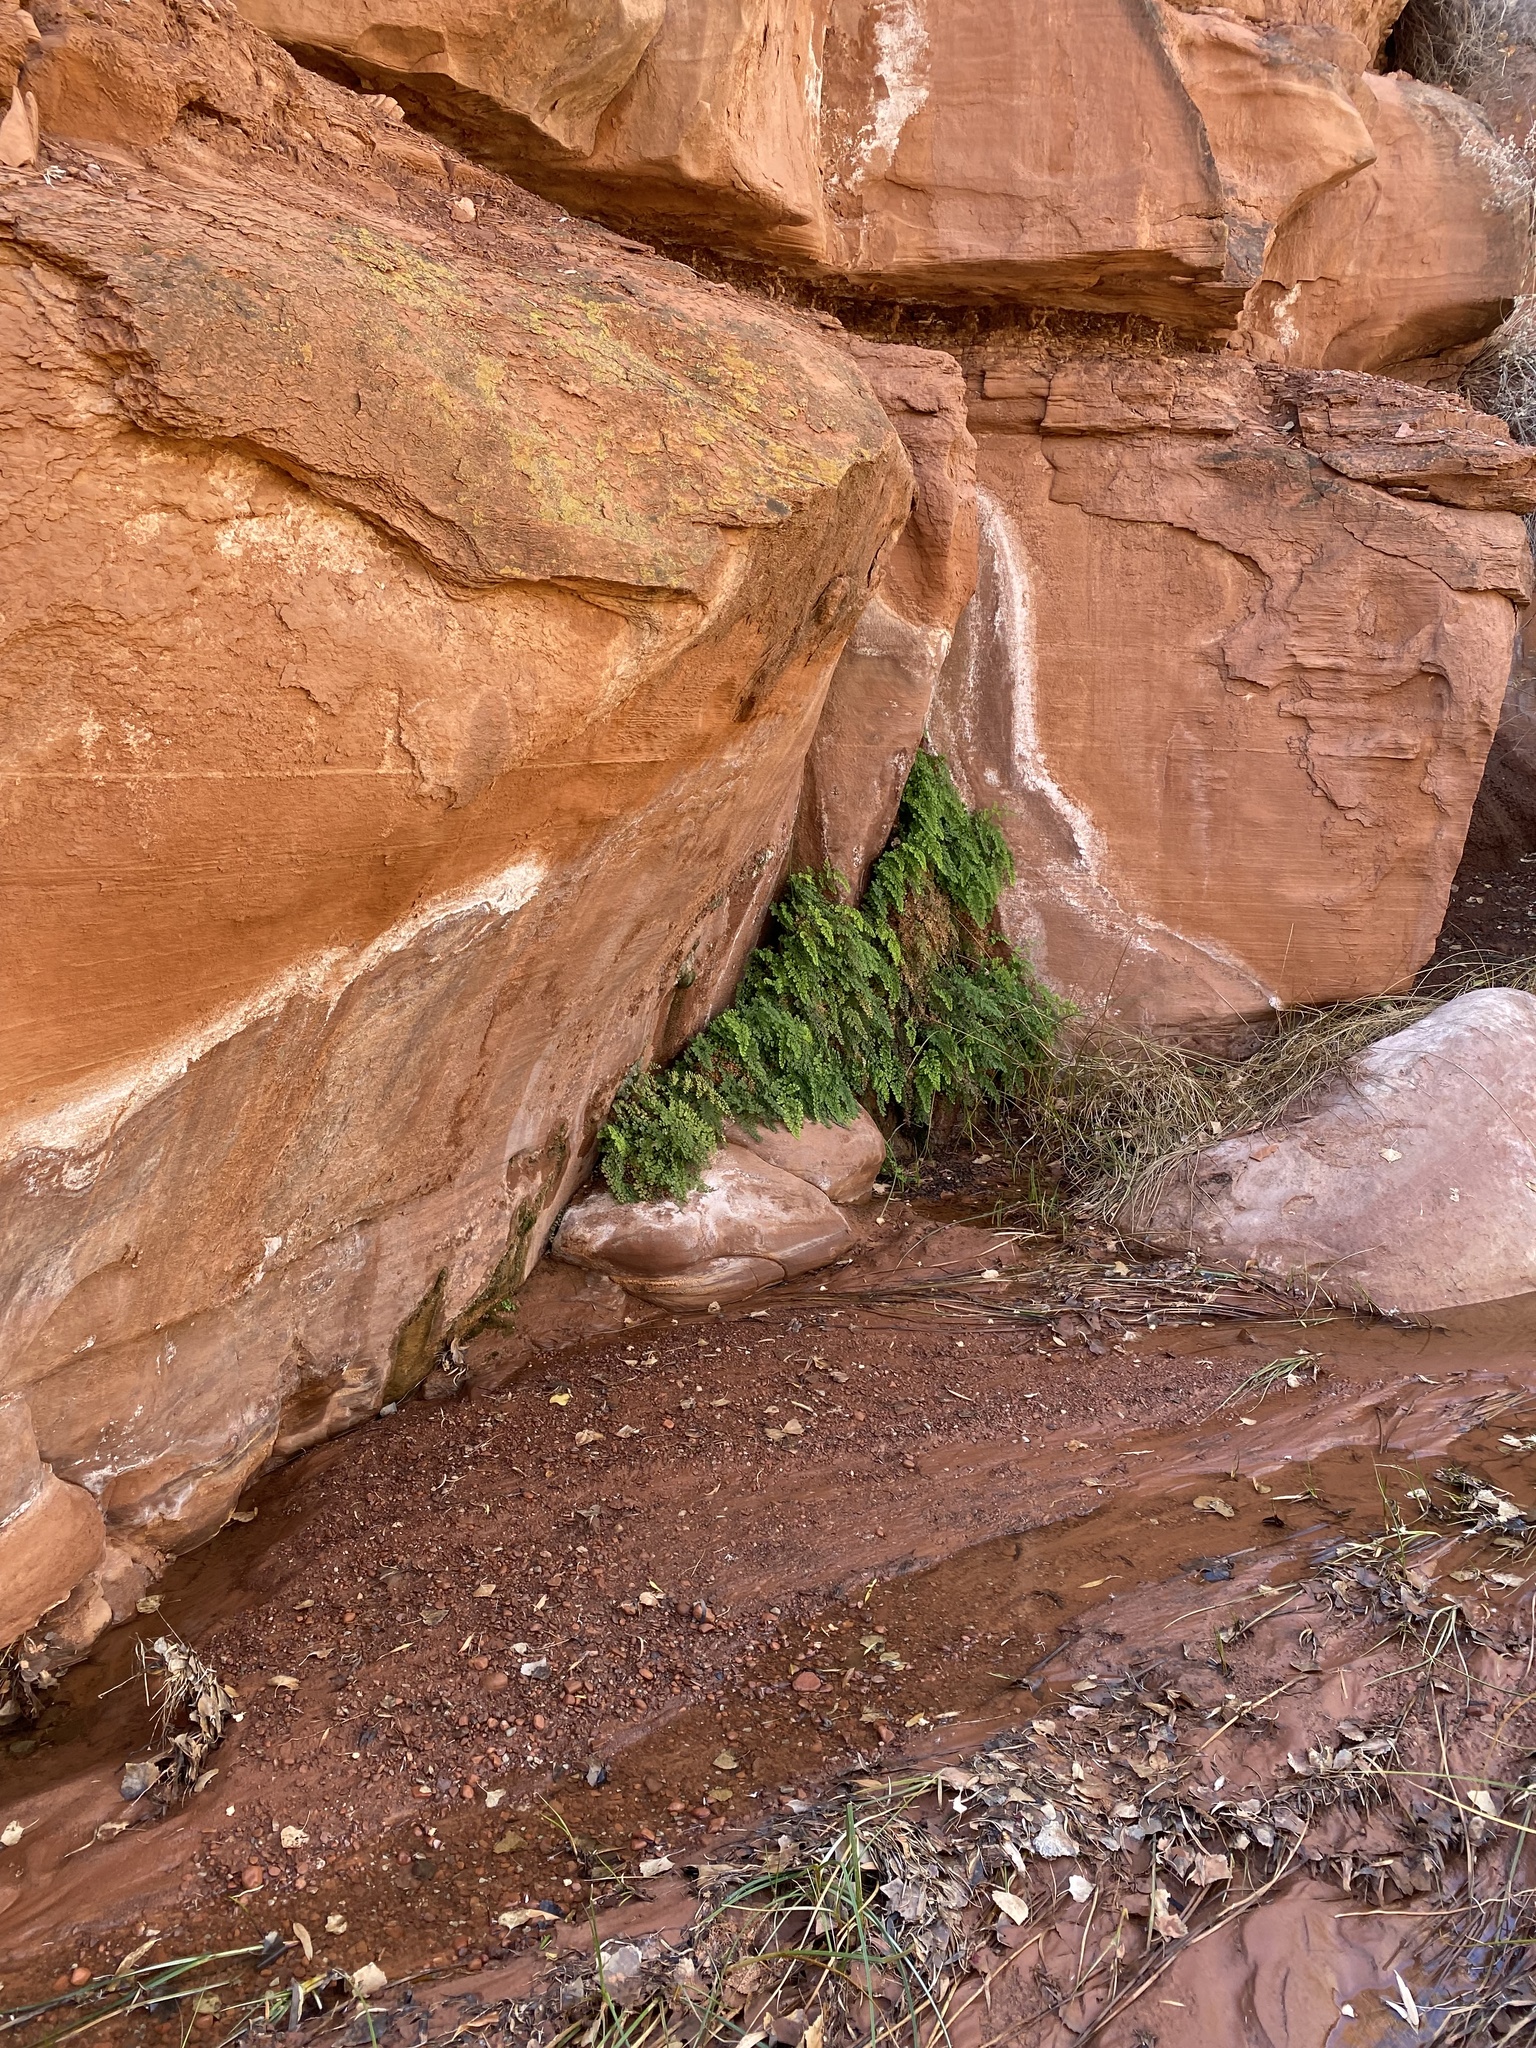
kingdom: Plantae
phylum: Tracheophyta
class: Polypodiopsida
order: Polypodiales
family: Pteridaceae
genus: Adiantum
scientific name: Adiantum capillus-veneris
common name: Maidenhair fern
